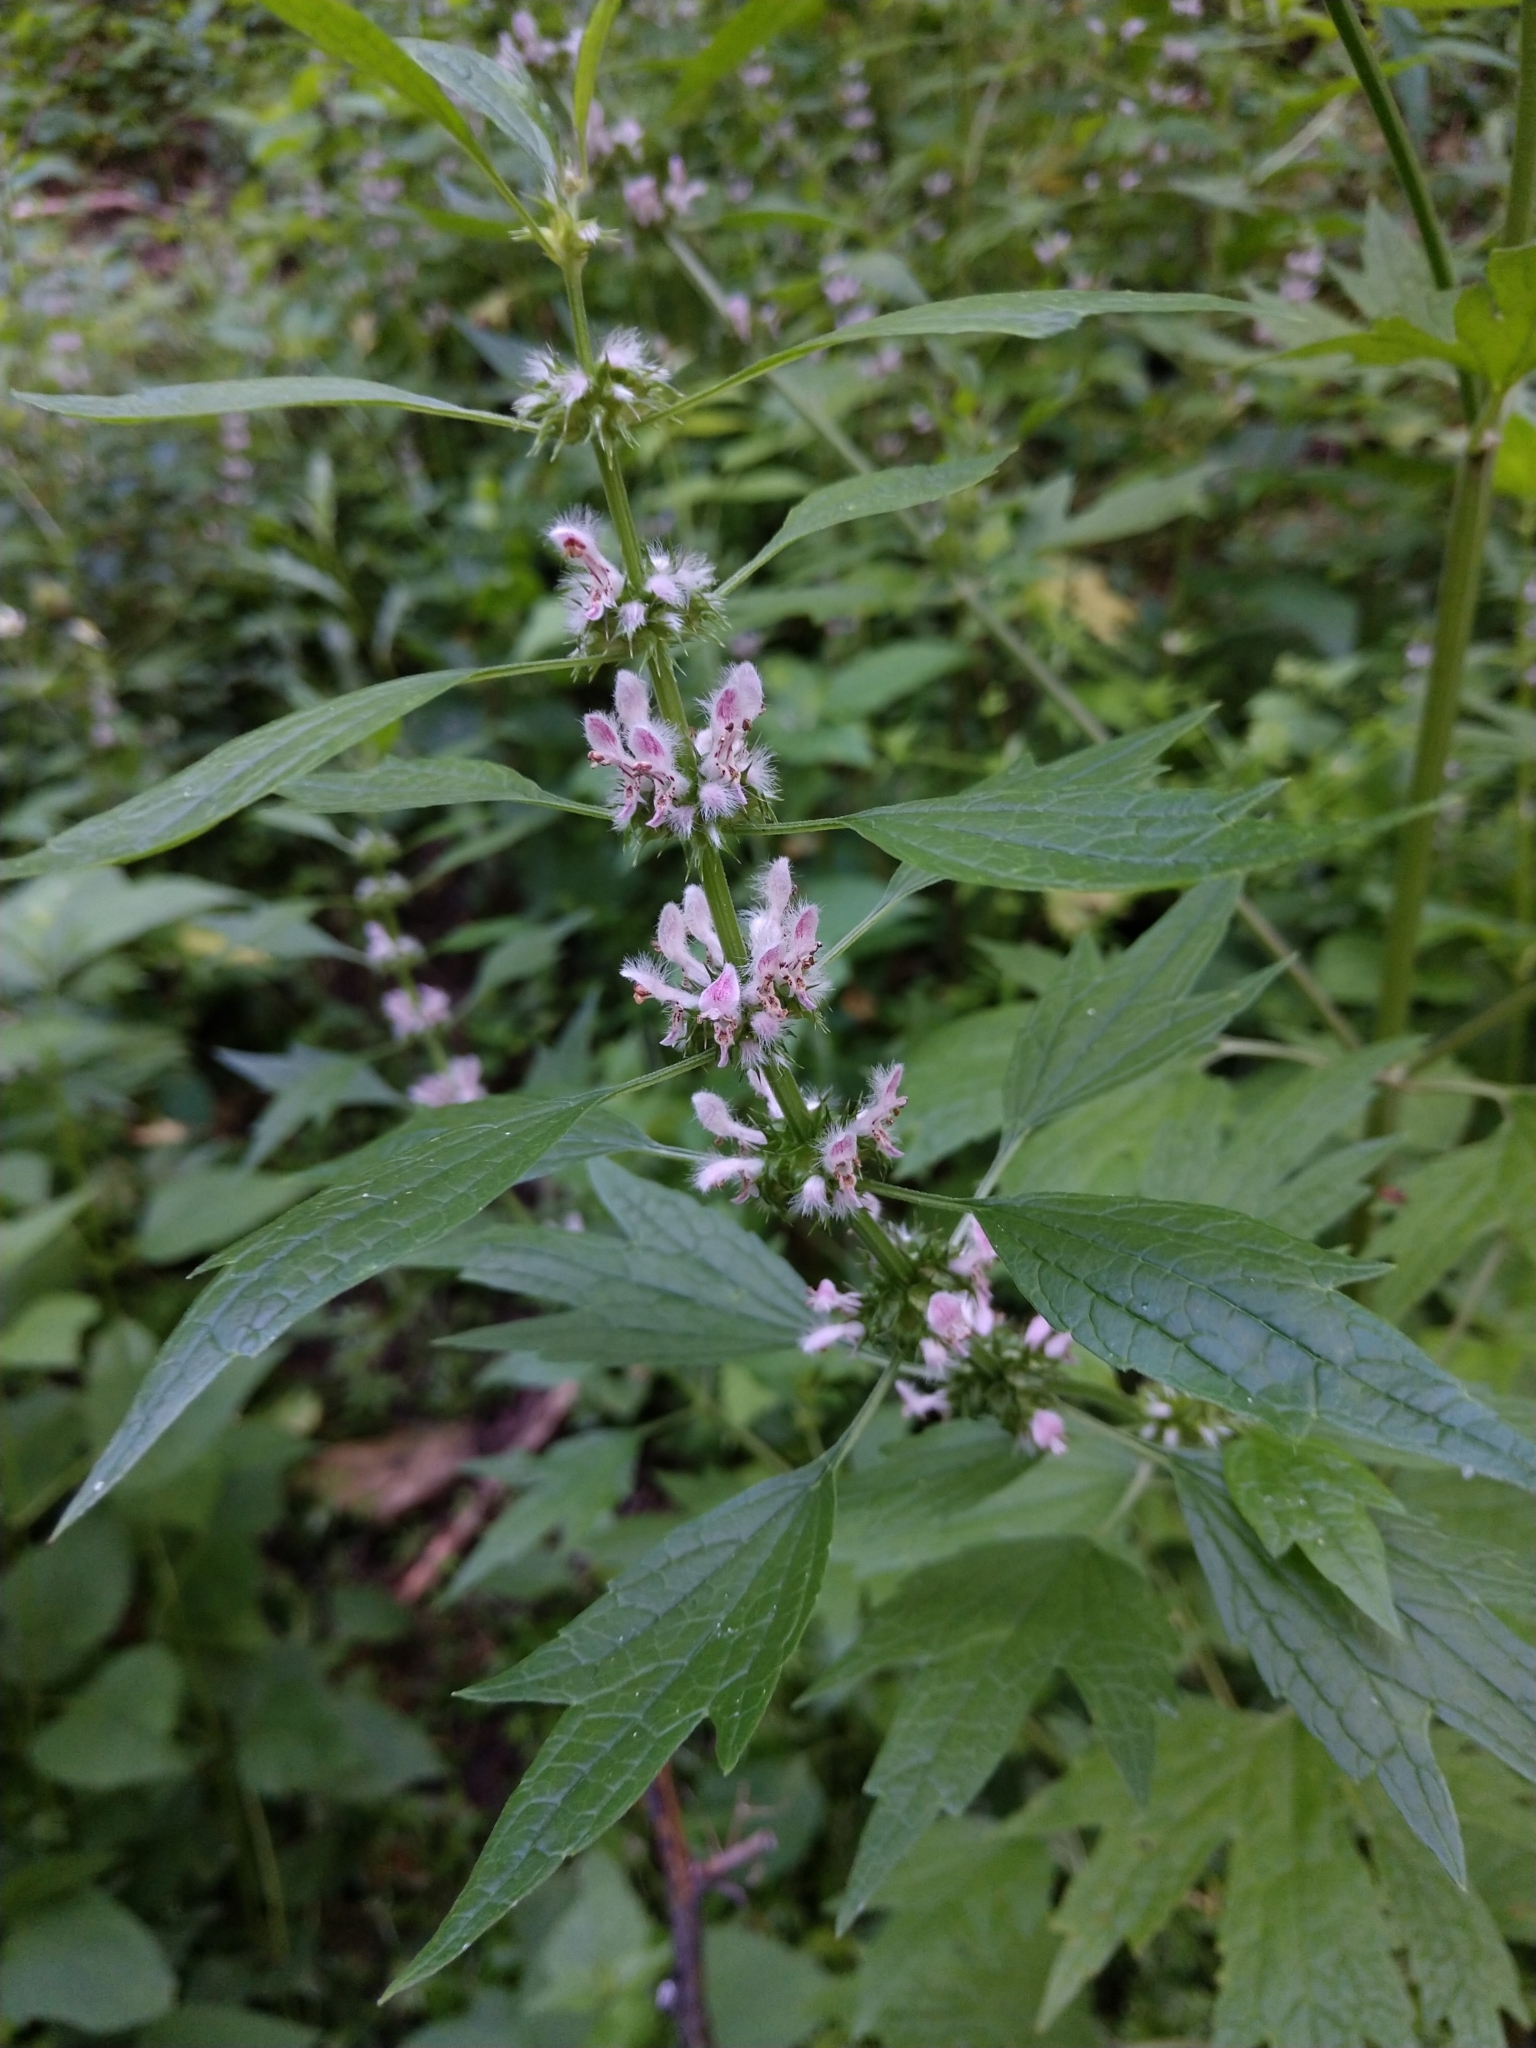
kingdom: Plantae
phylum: Tracheophyta
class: Magnoliopsida
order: Lamiales
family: Lamiaceae
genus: Leonurus
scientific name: Leonurus cardiaca
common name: Motherwort
